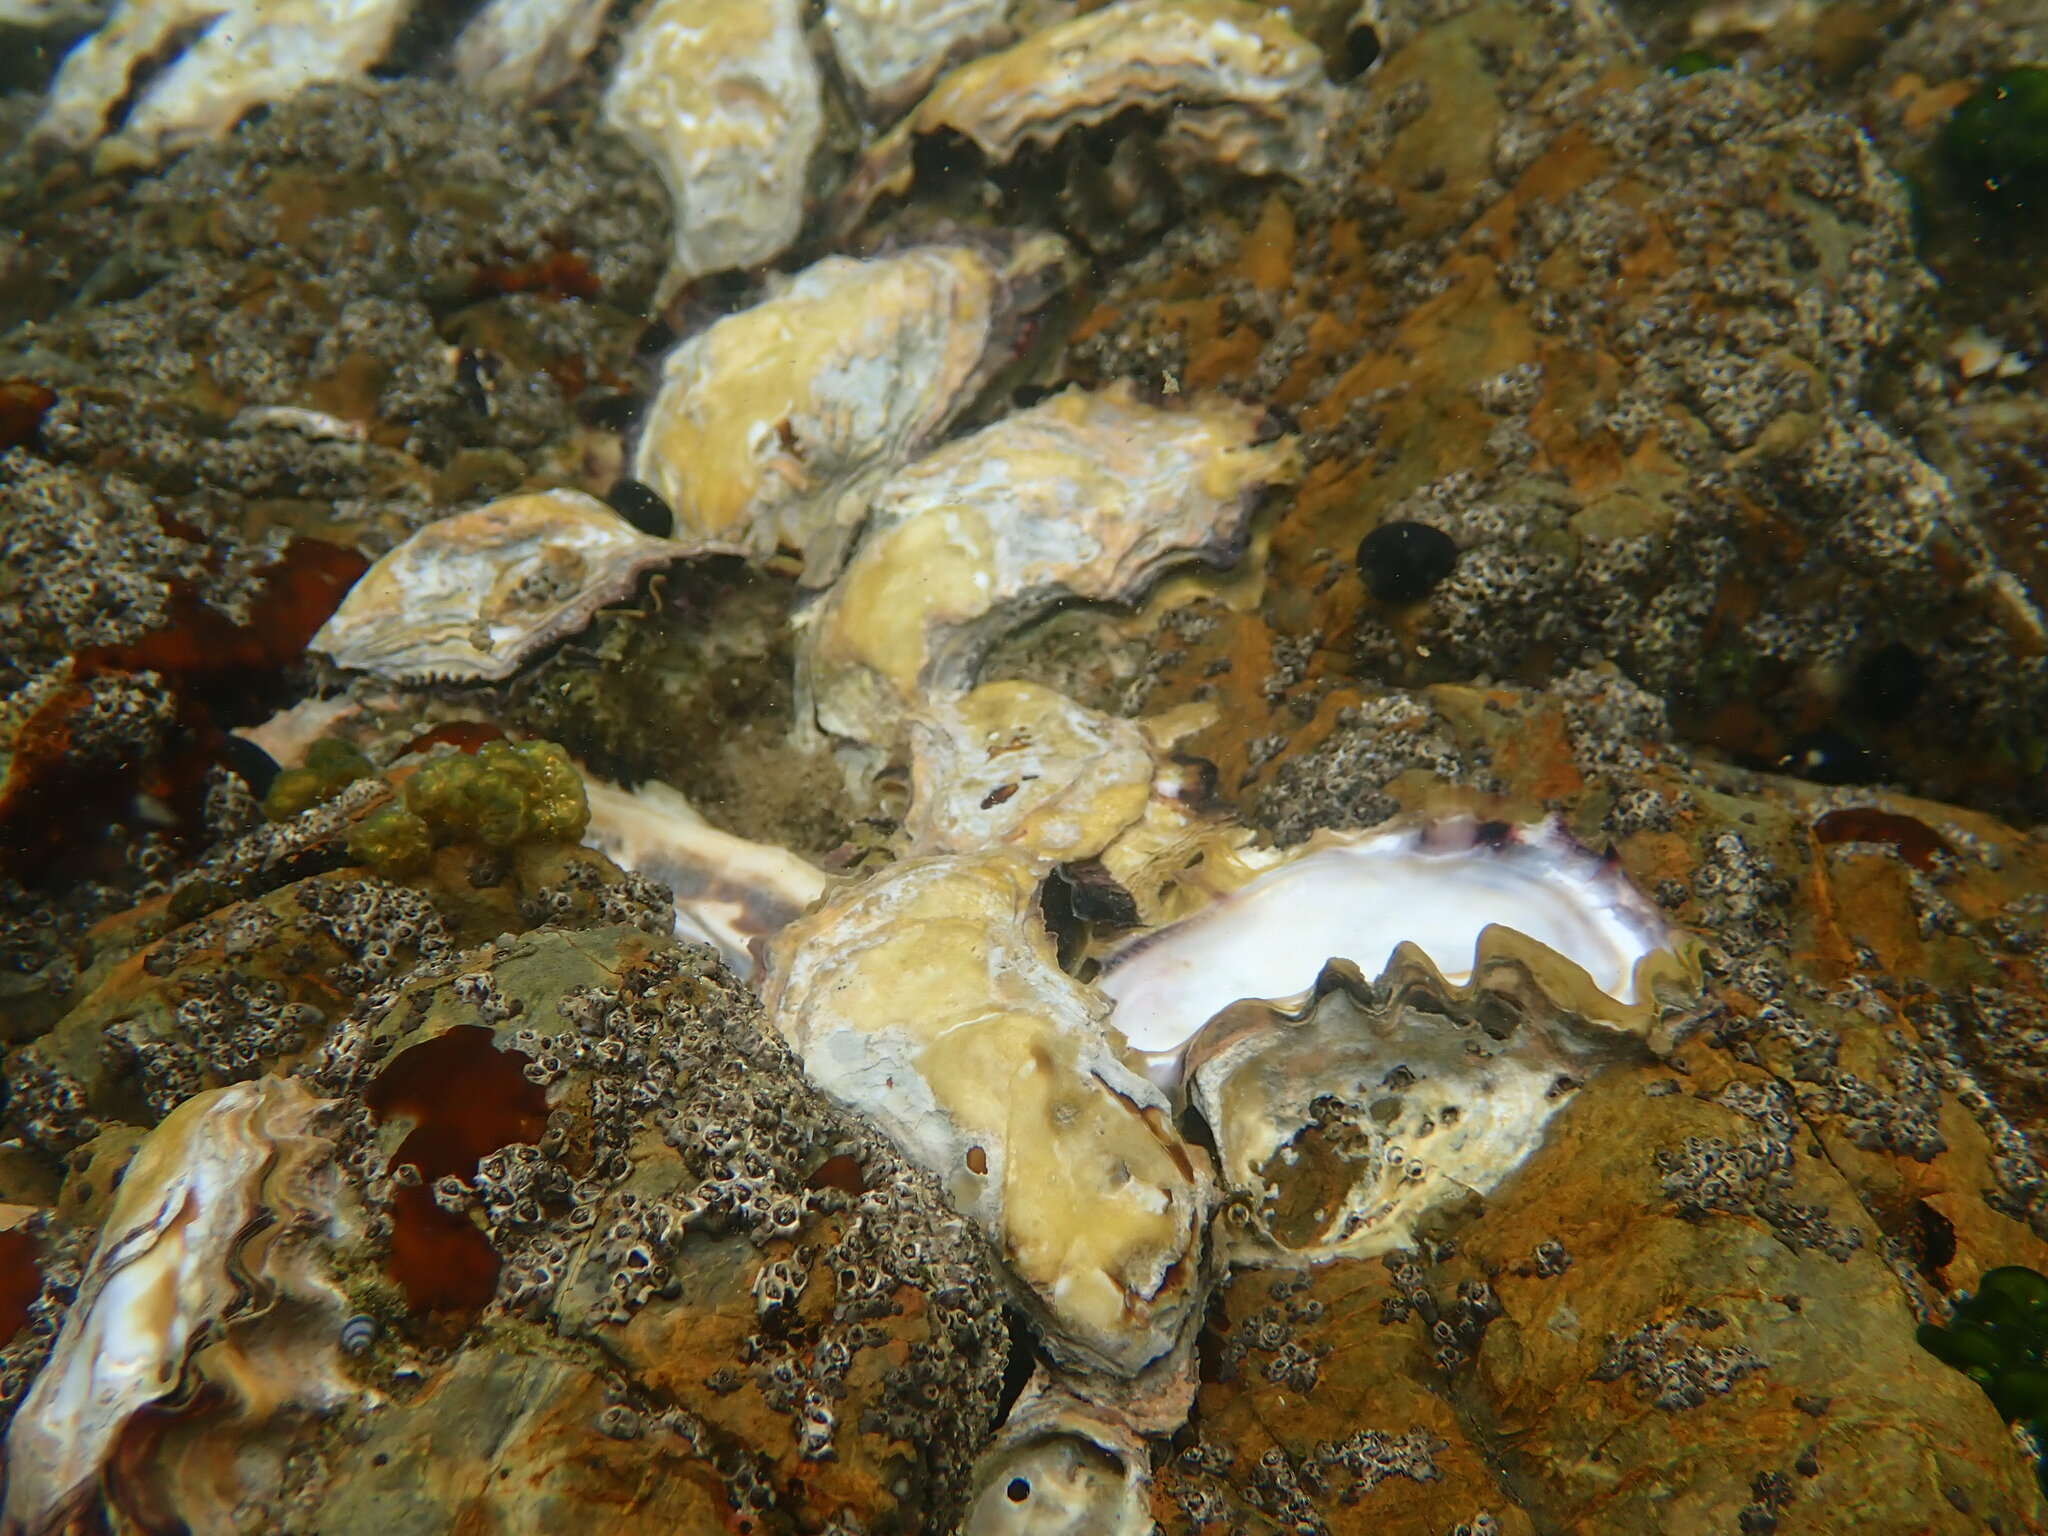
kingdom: Animalia
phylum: Mollusca
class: Bivalvia
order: Ostreida
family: Ostreidae
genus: Saccostrea
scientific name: Saccostrea glomerata
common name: Sydney cupped oyster
